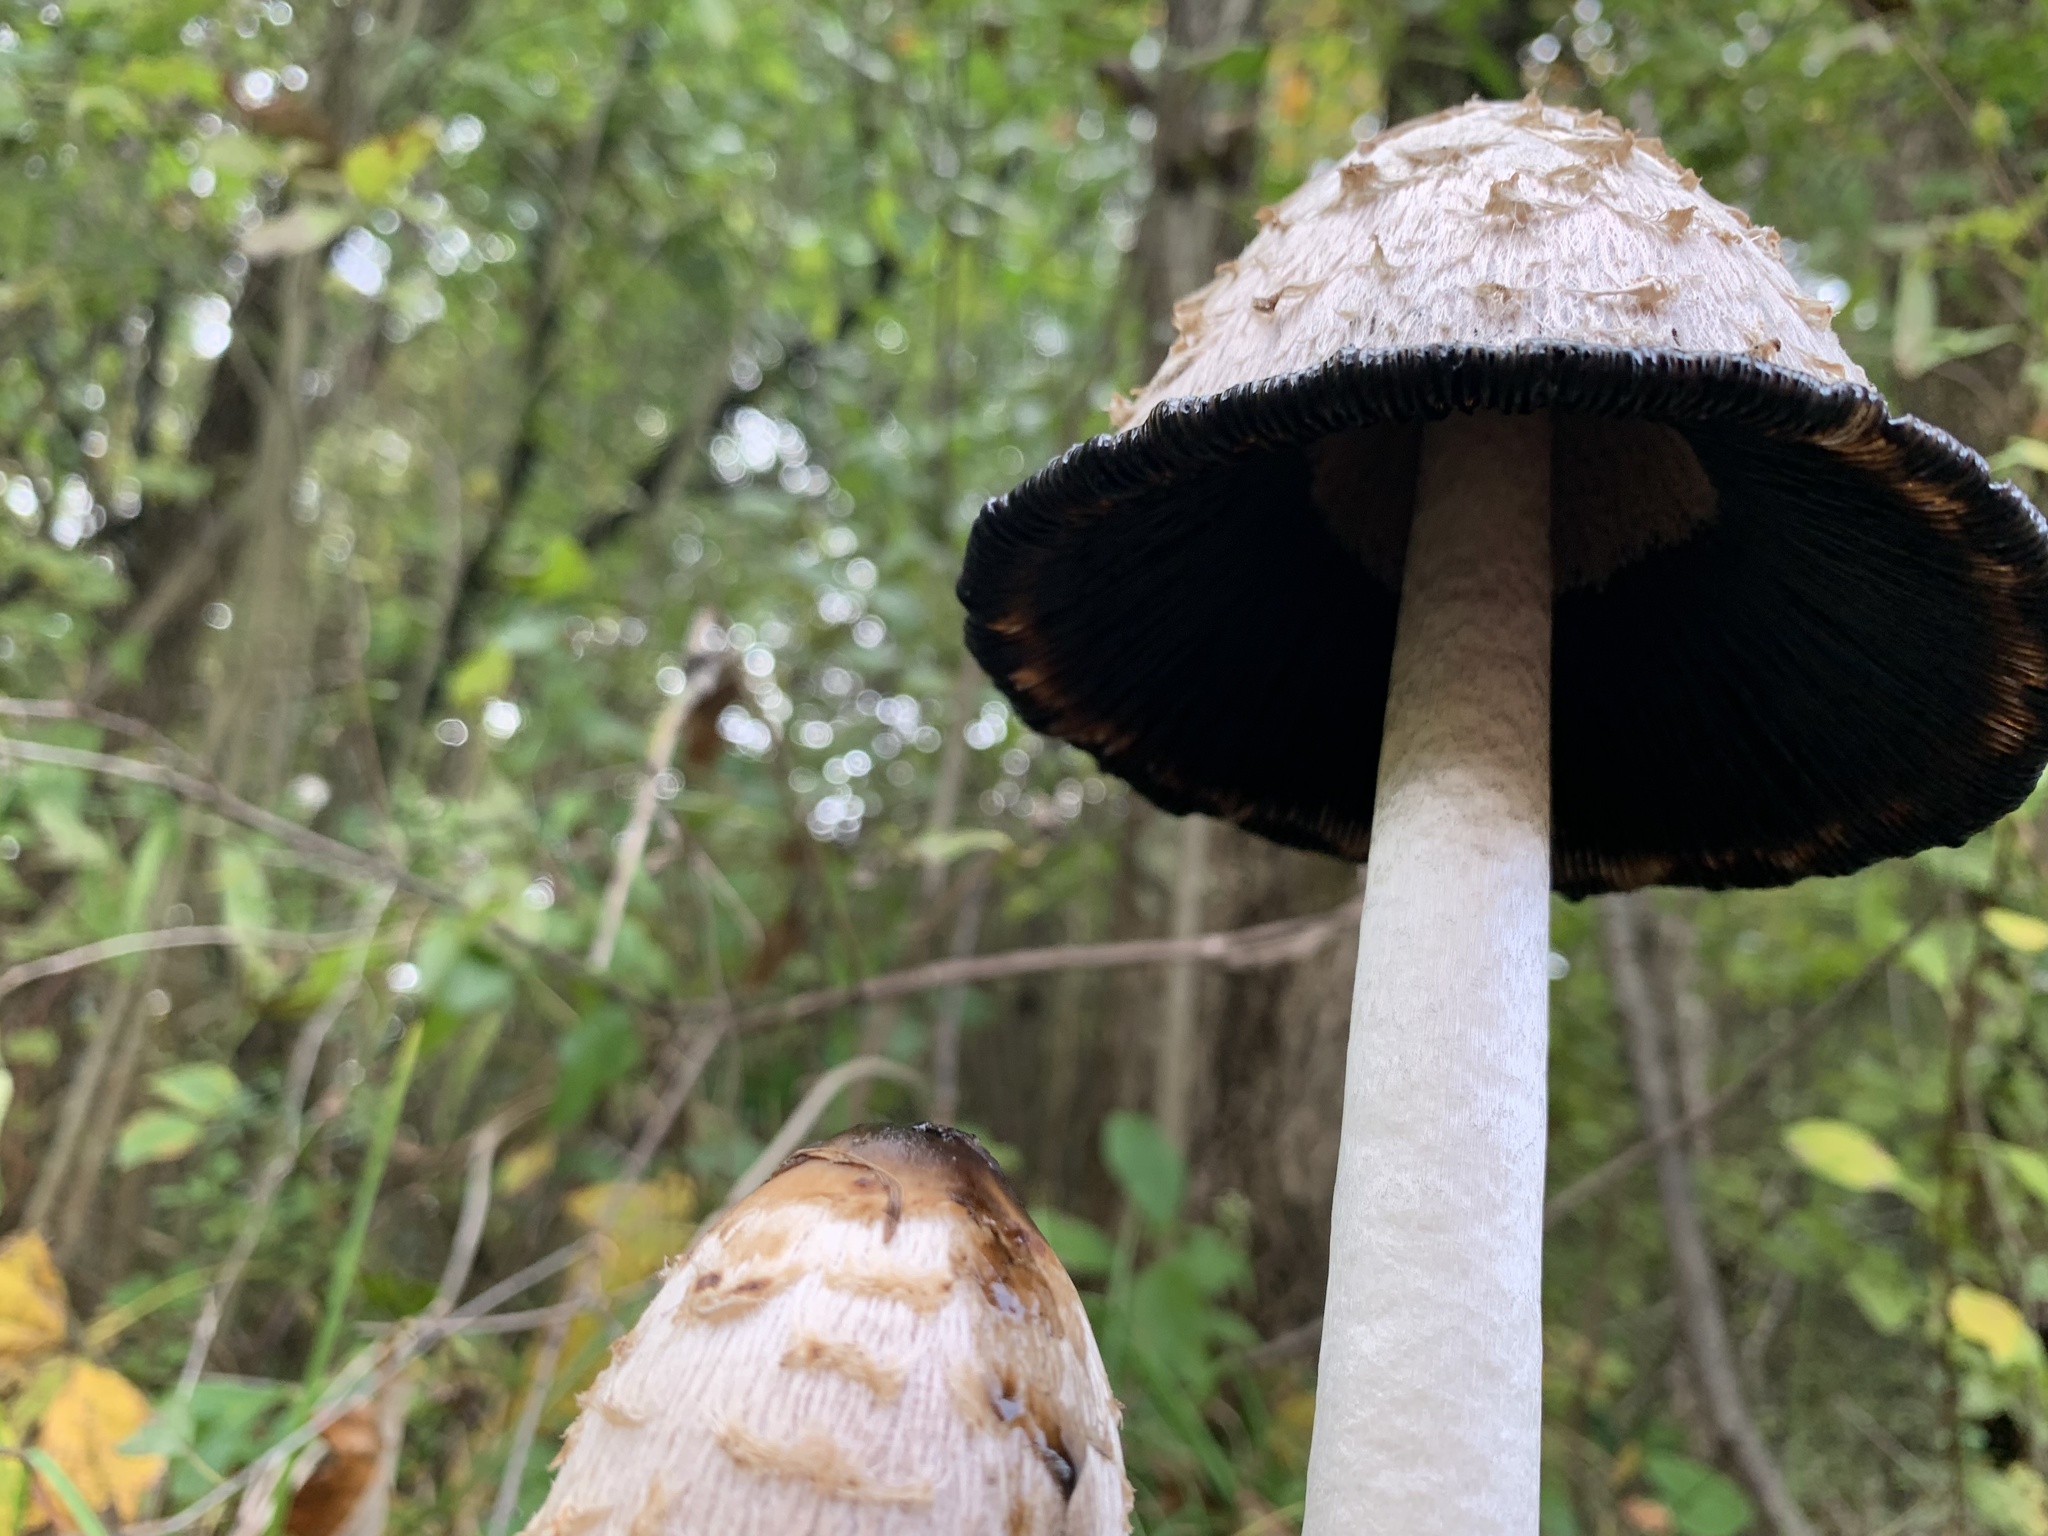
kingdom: Fungi
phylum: Basidiomycota
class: Agaricomycetes
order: Agaricales
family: Agaricaceae
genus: Coprinus
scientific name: Coprinus comatus
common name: Lawyer's wig
